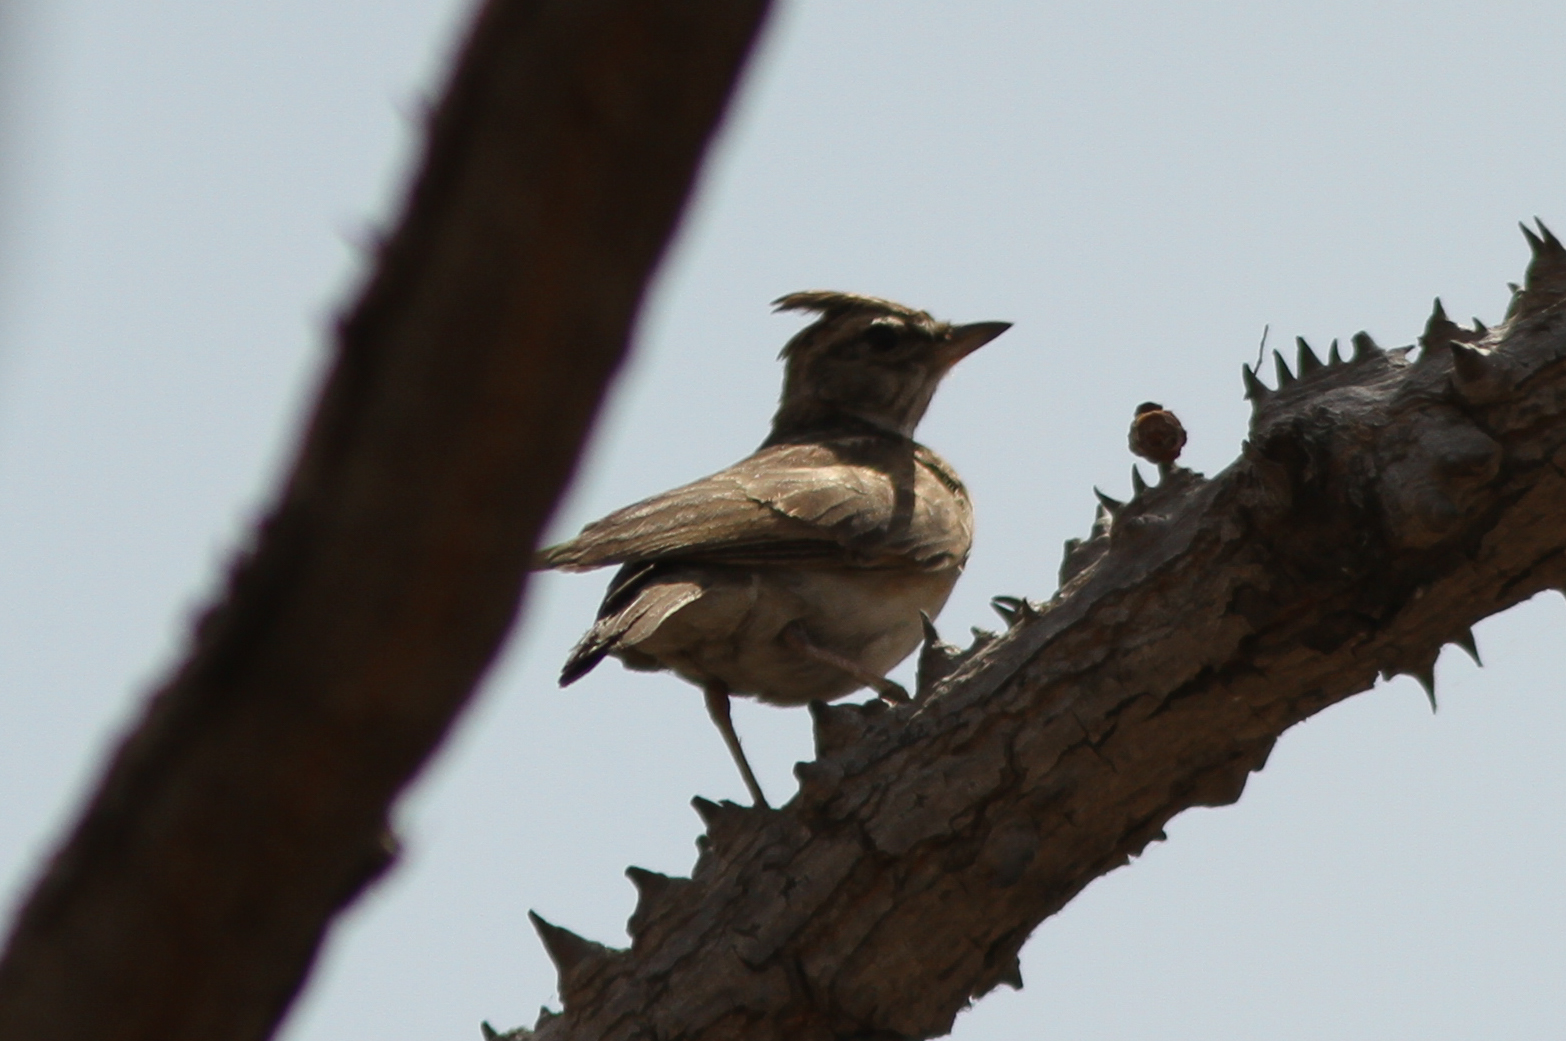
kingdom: Animalia
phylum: Chordata
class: Aves
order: Passeriformes
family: Alaudidae
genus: Galerida
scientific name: Galerida modesta
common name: Sun lark
